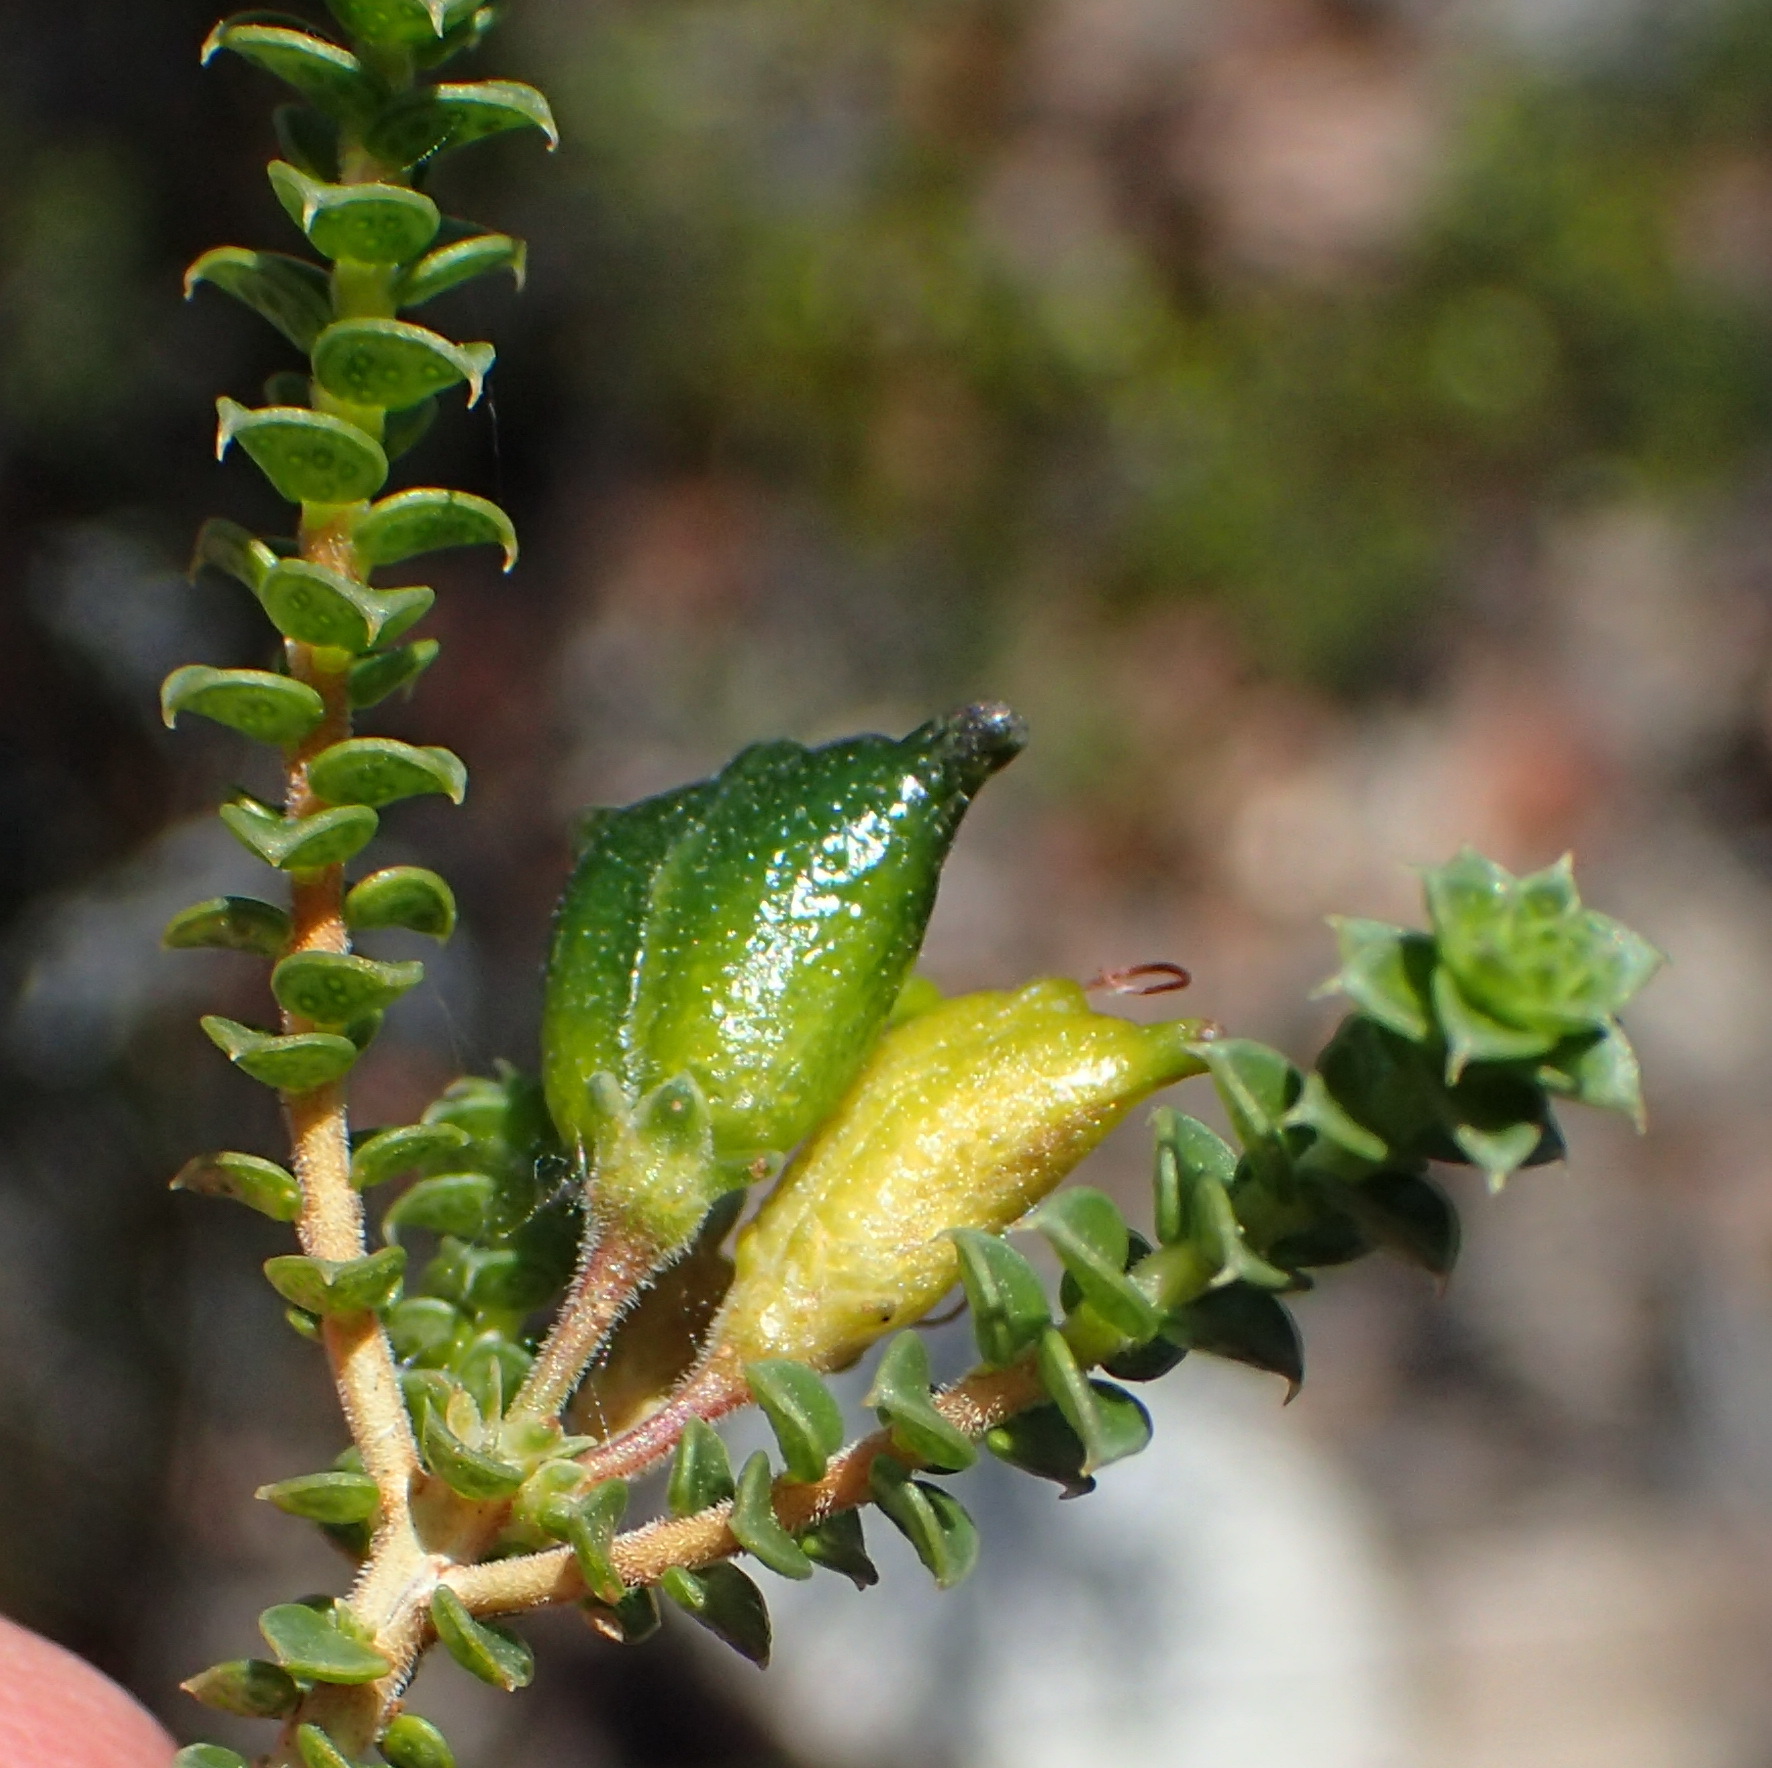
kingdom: Plantae
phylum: Tracheophyta
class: Magnoliopsida
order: Sapindales
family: Rutaceae
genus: Agathosma
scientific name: Agathosma recurvifolia
